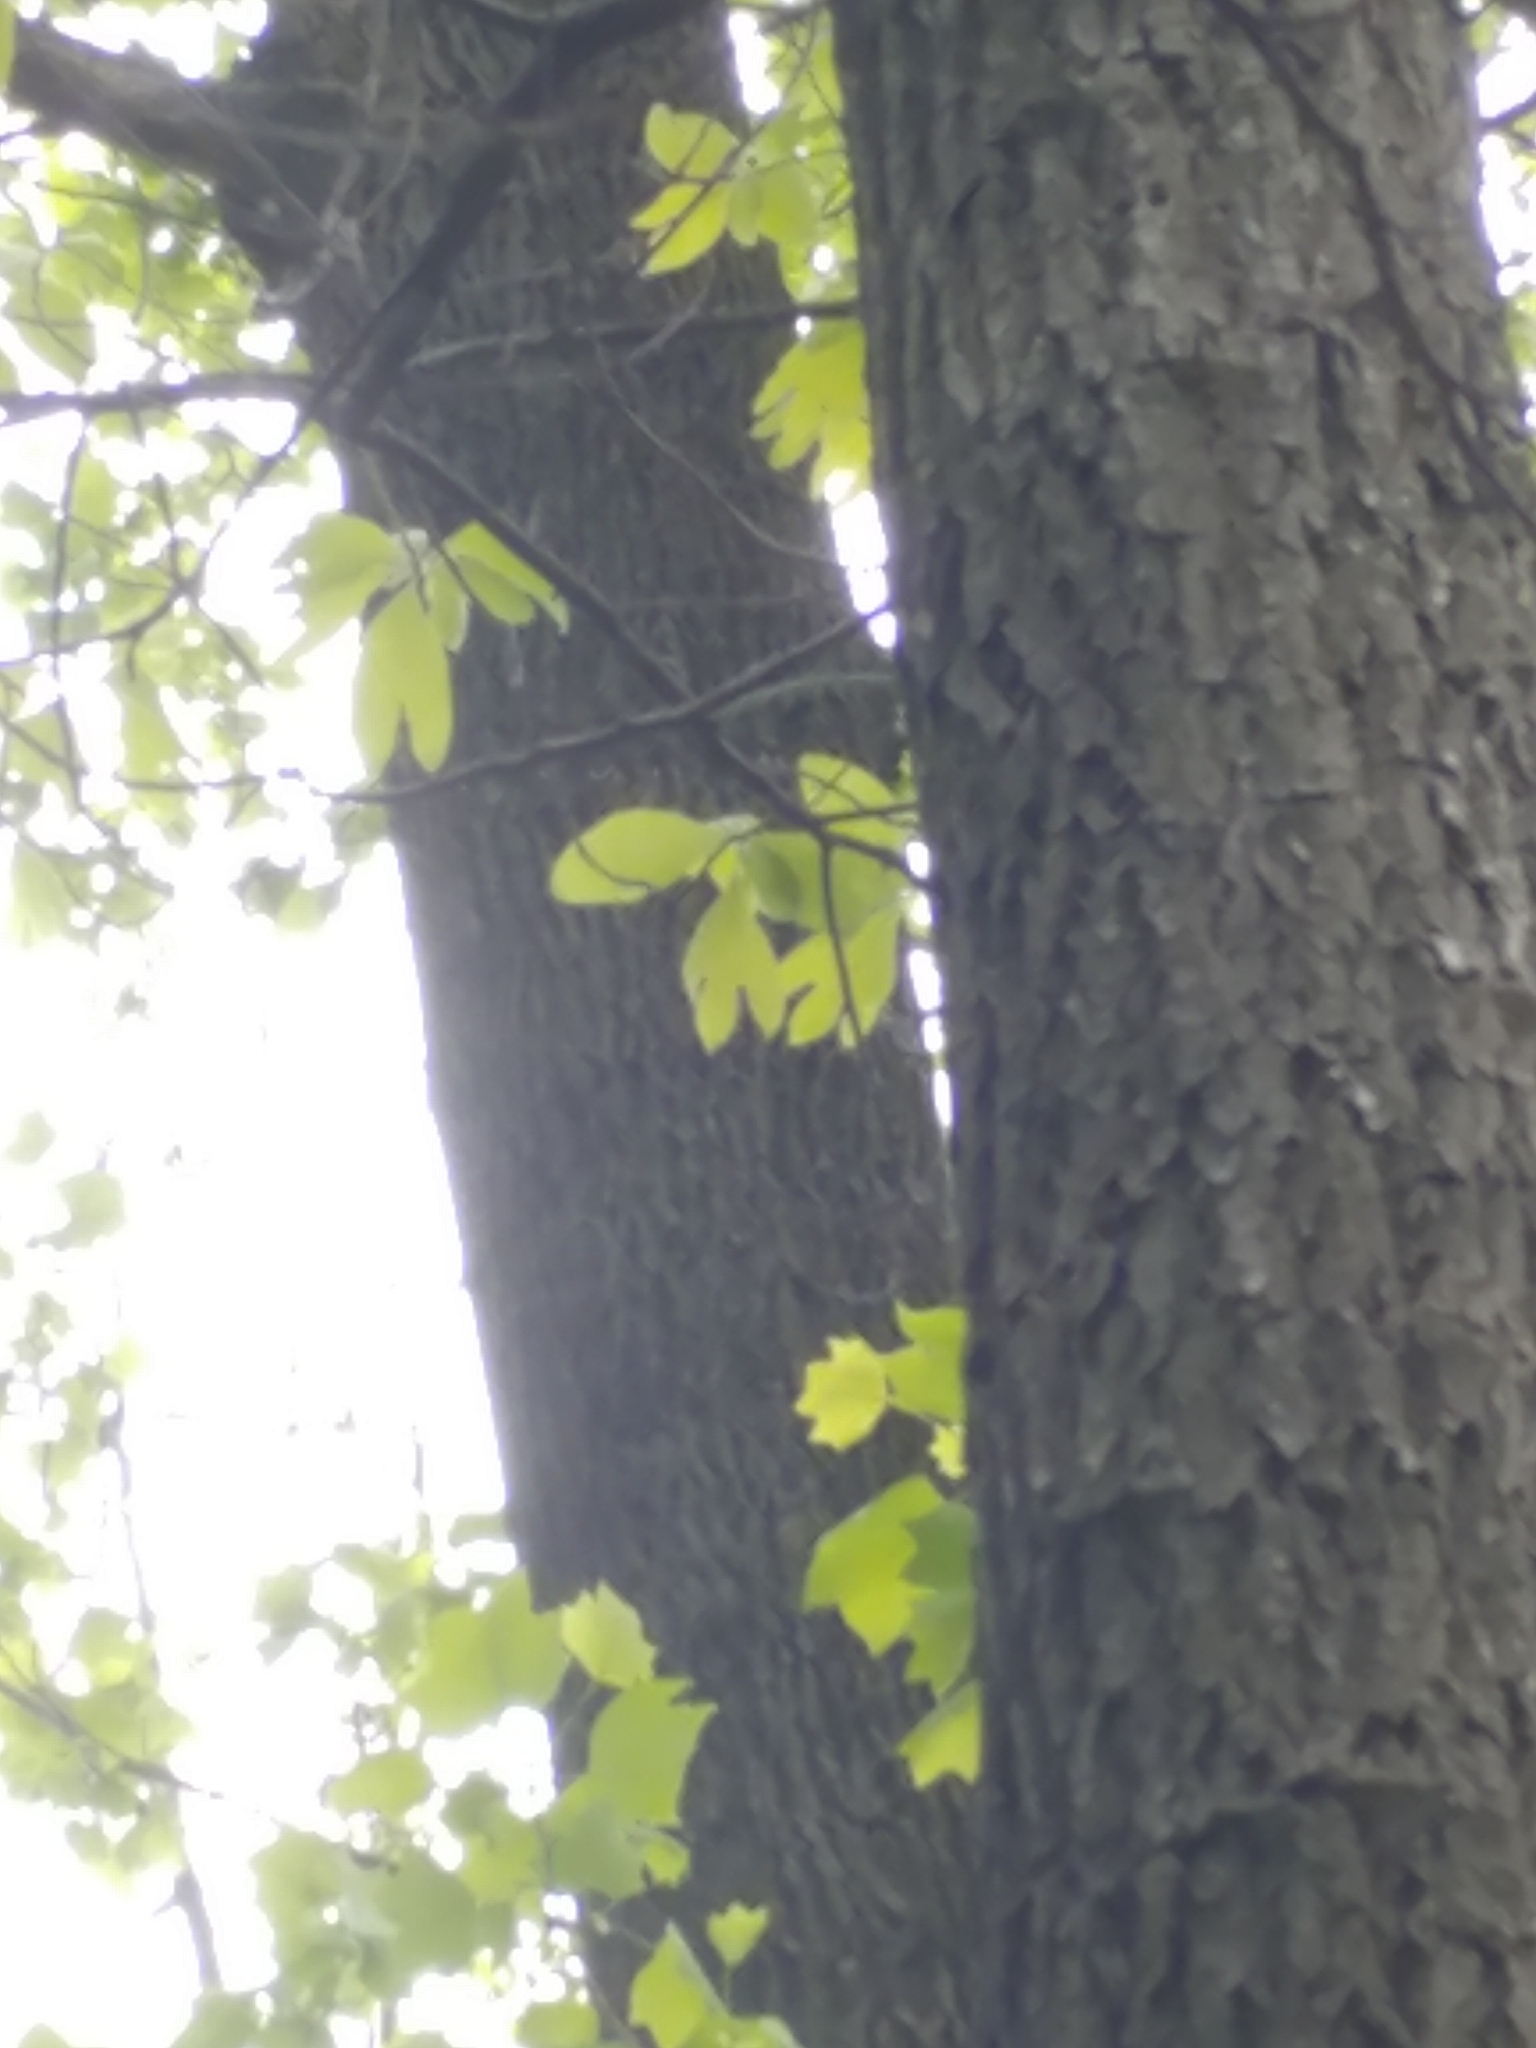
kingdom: Plantae
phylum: Tracheophyta
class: Magnoliopsida
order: Laurales
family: Lauraceae
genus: Sassafras
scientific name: Sassafras albidum
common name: Sassafras
